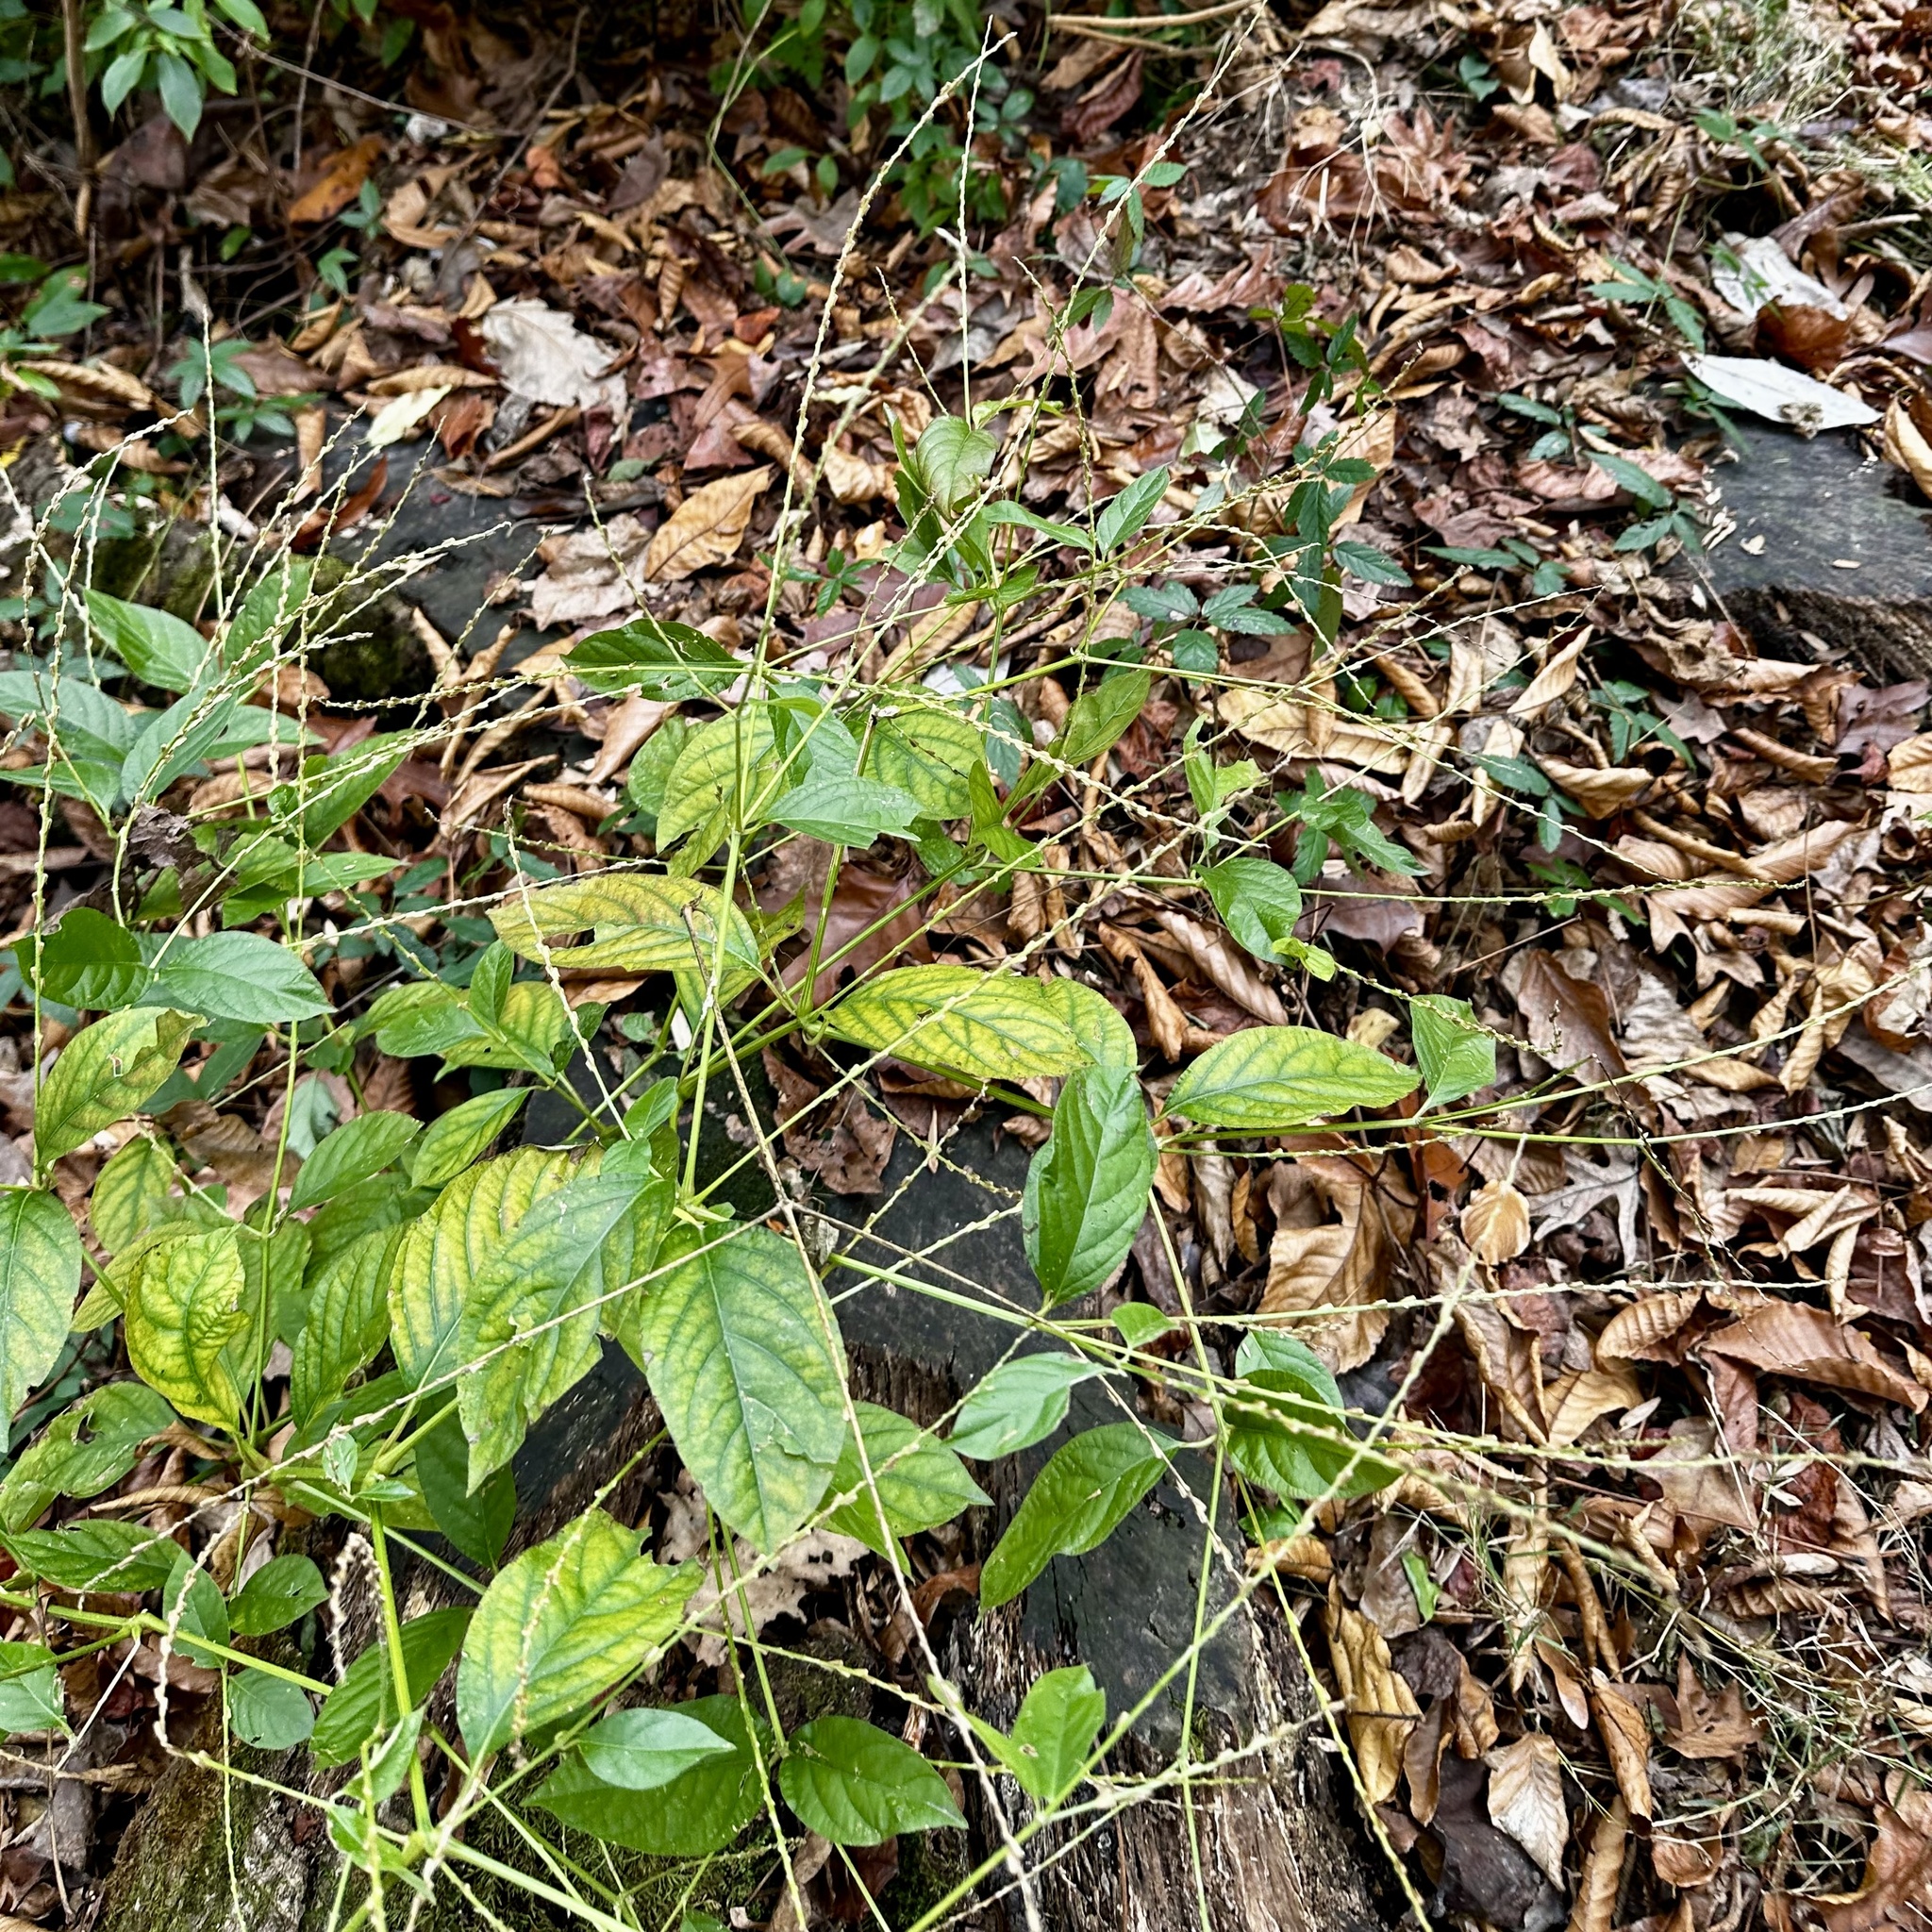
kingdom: Plantae
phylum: Tracheophyta
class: Magnoliopsida
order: Caryophyllales
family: Amaranthaceae
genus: Achyranthes
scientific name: Achyranthes bidentata
